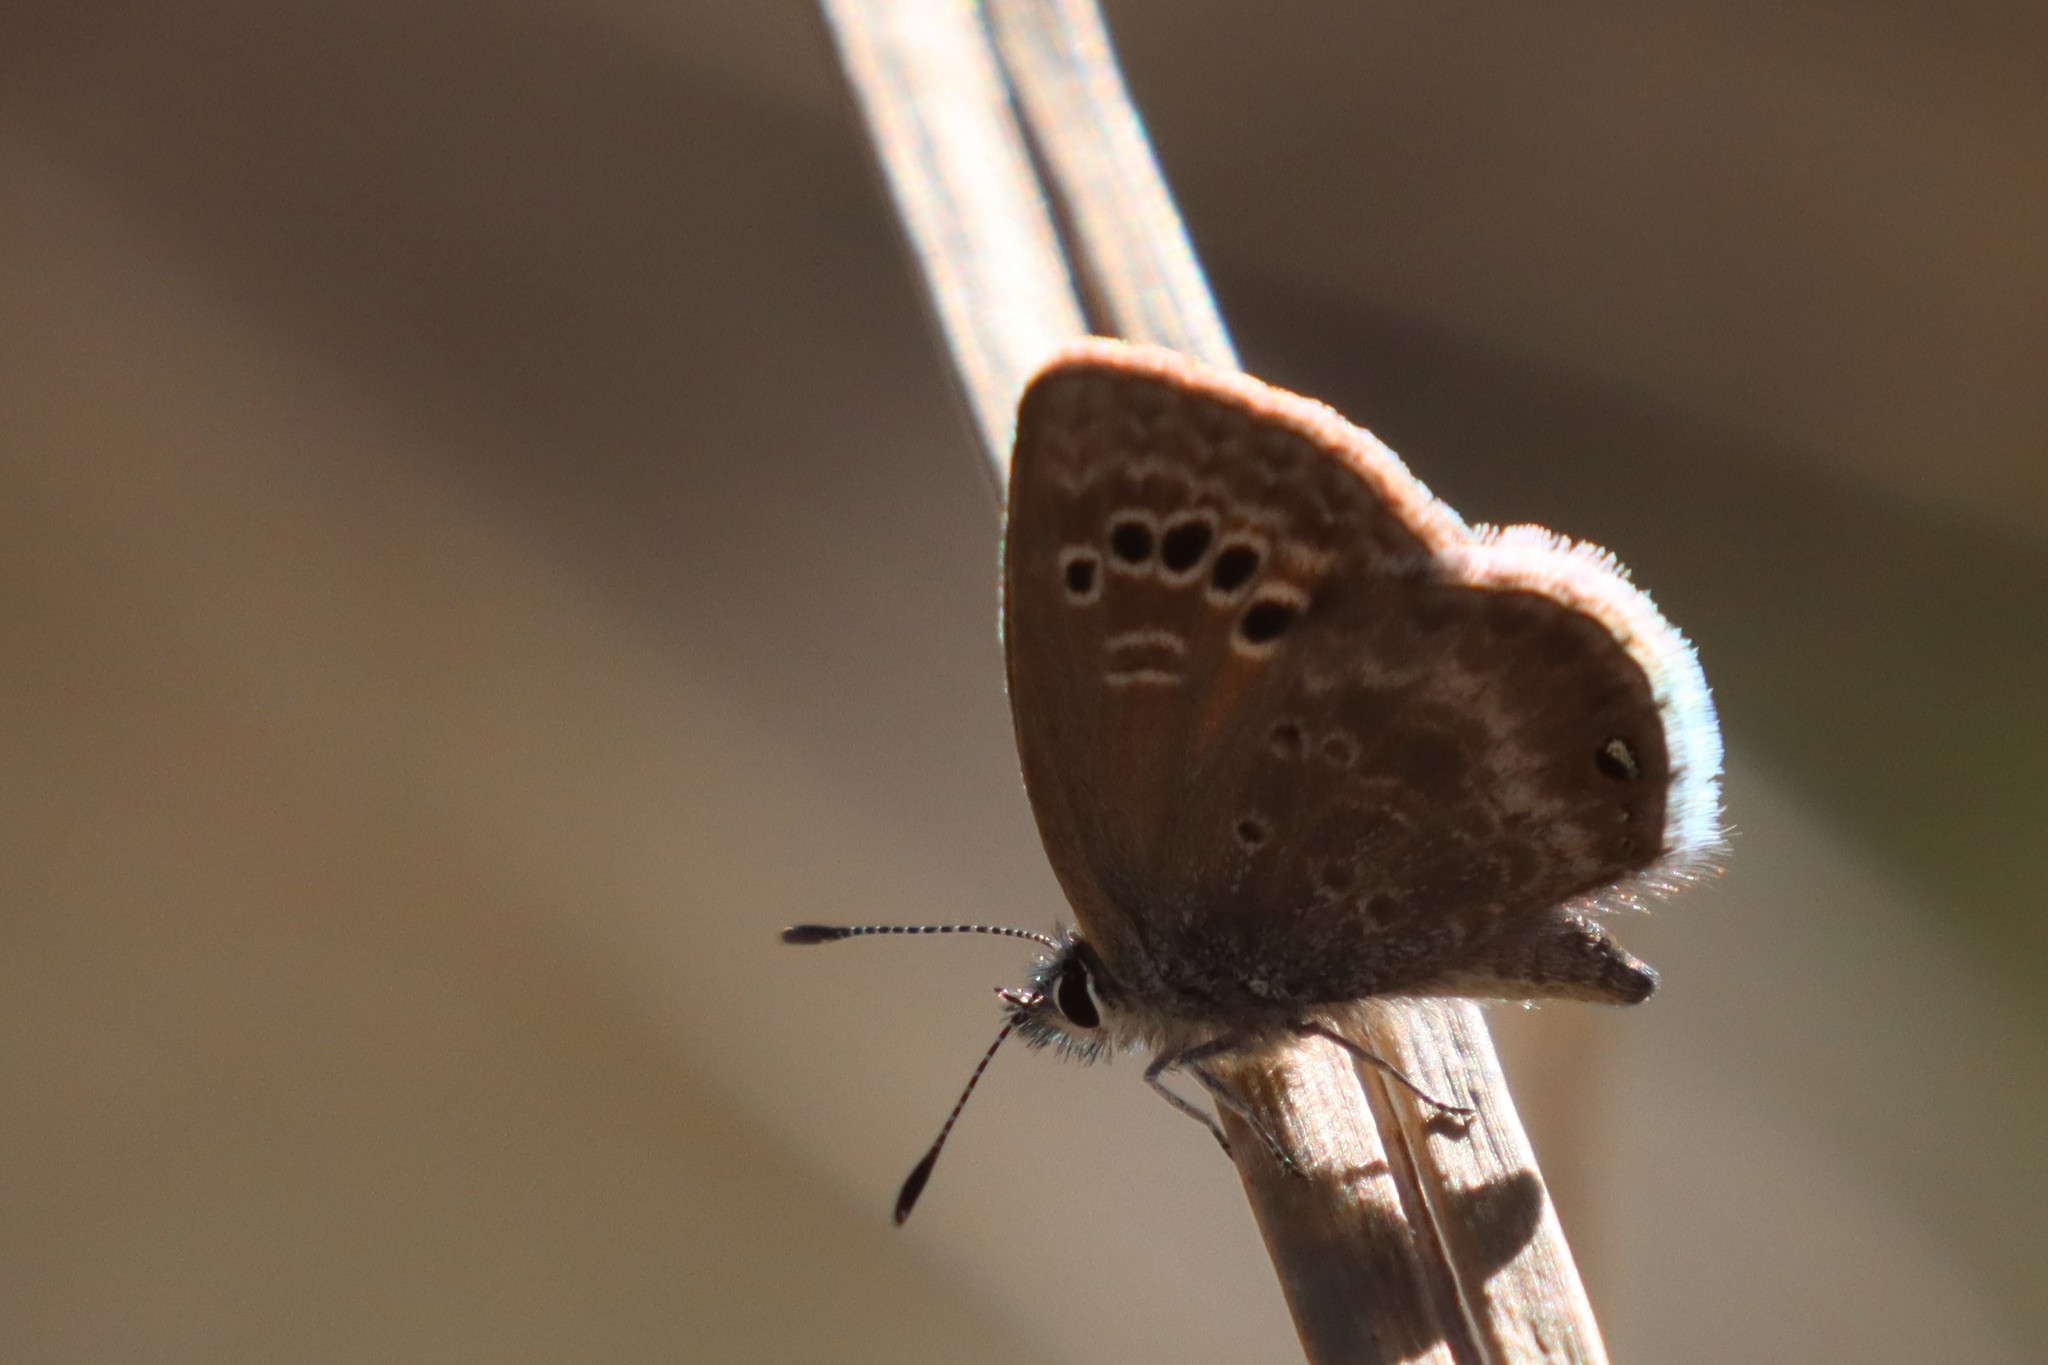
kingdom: Animalia
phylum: Arthropoda
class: Insecta
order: Lepidoptera
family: Lycaenidae
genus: Echinargus
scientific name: Echinargus isola
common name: Reakirt's blue
